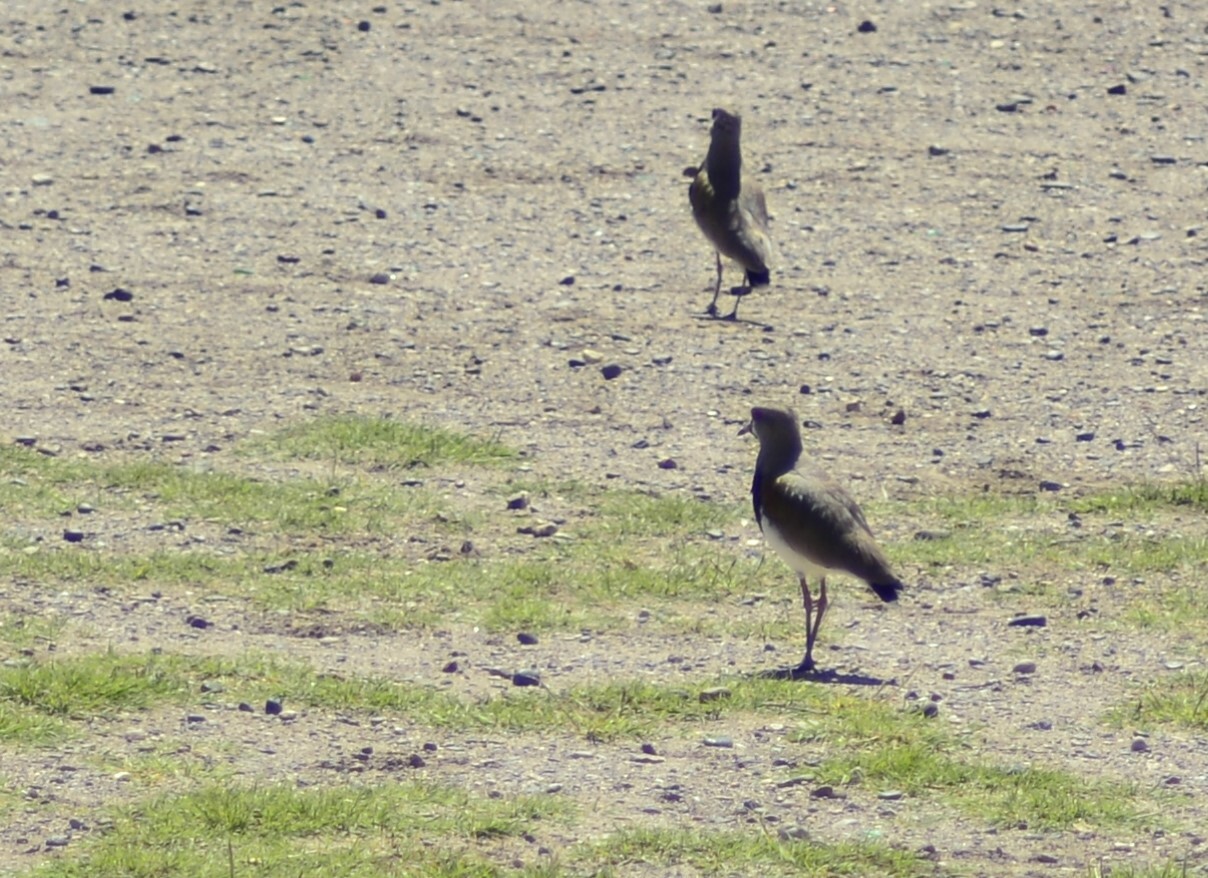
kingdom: Animalia
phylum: Chordata
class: Aves
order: Charadriiformes
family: Charadriidae
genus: Vanellus
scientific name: Vanellus chilensis
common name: Southern lapwing
